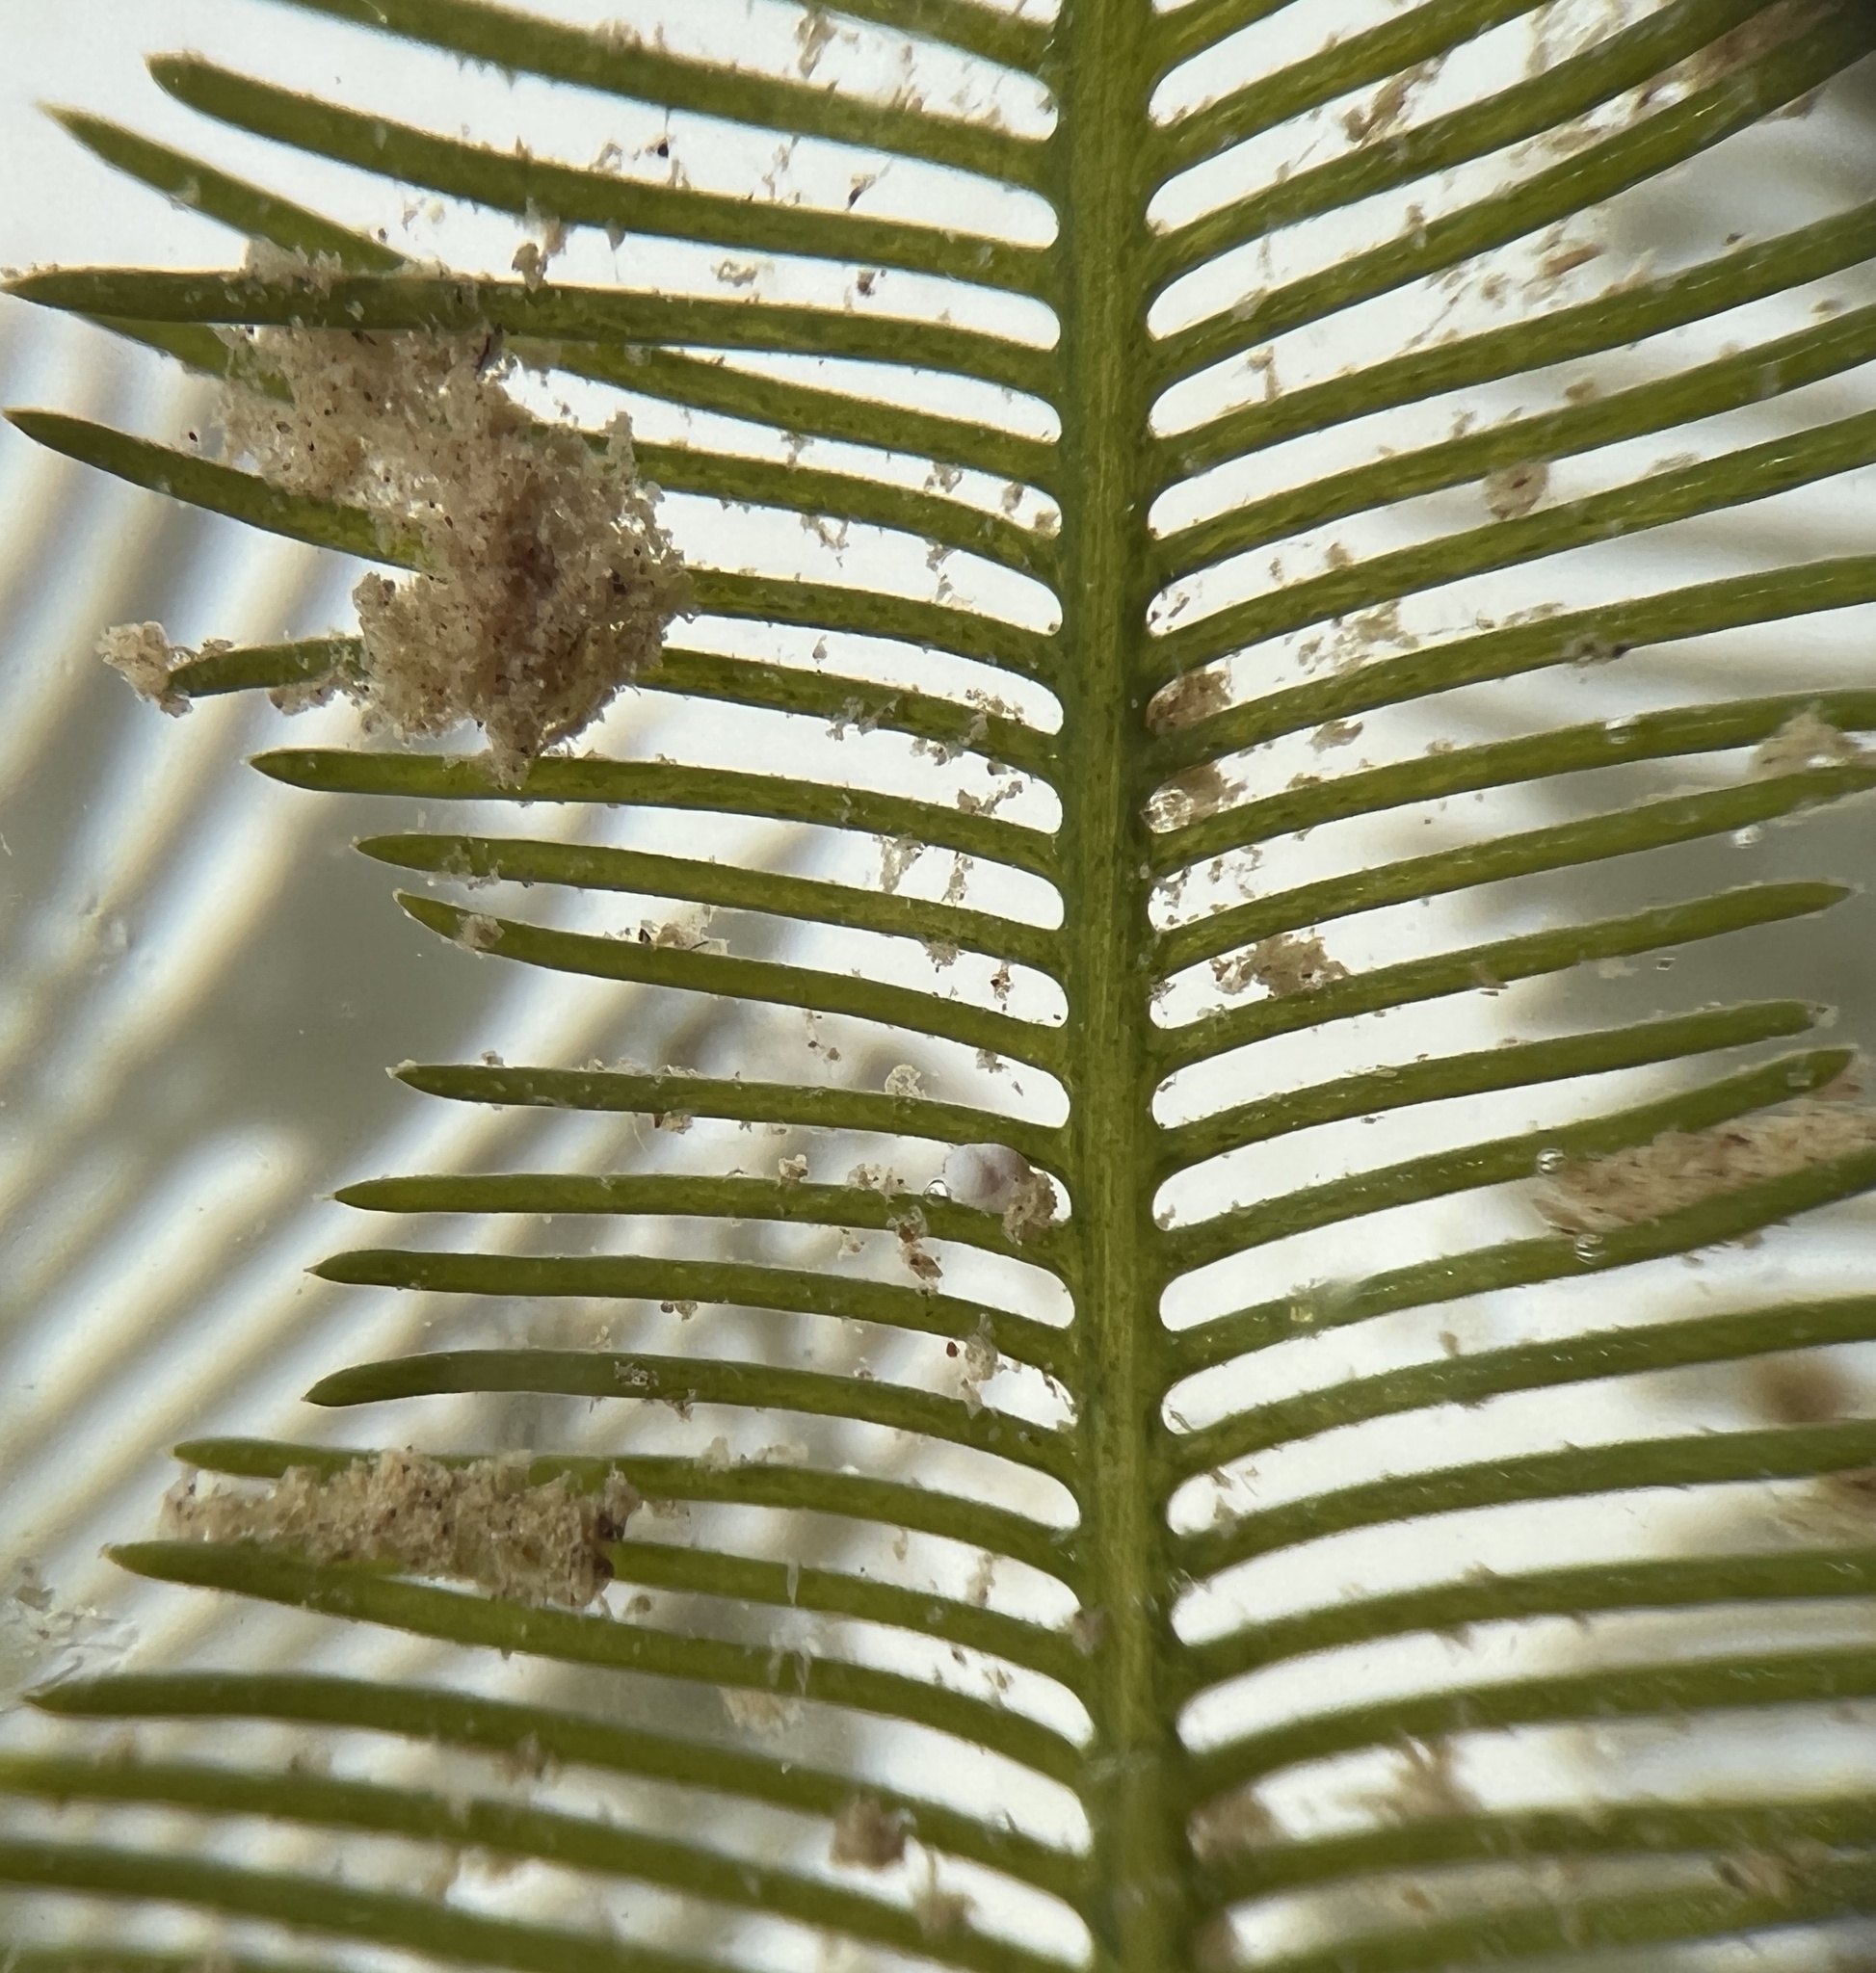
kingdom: Plantae
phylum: Chlorophyta
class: Ulvophyceae
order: Bryopsidales
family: Caulerpaceae
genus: Caulerpa
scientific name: Caulerpa sertularioides
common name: Green feather algae
